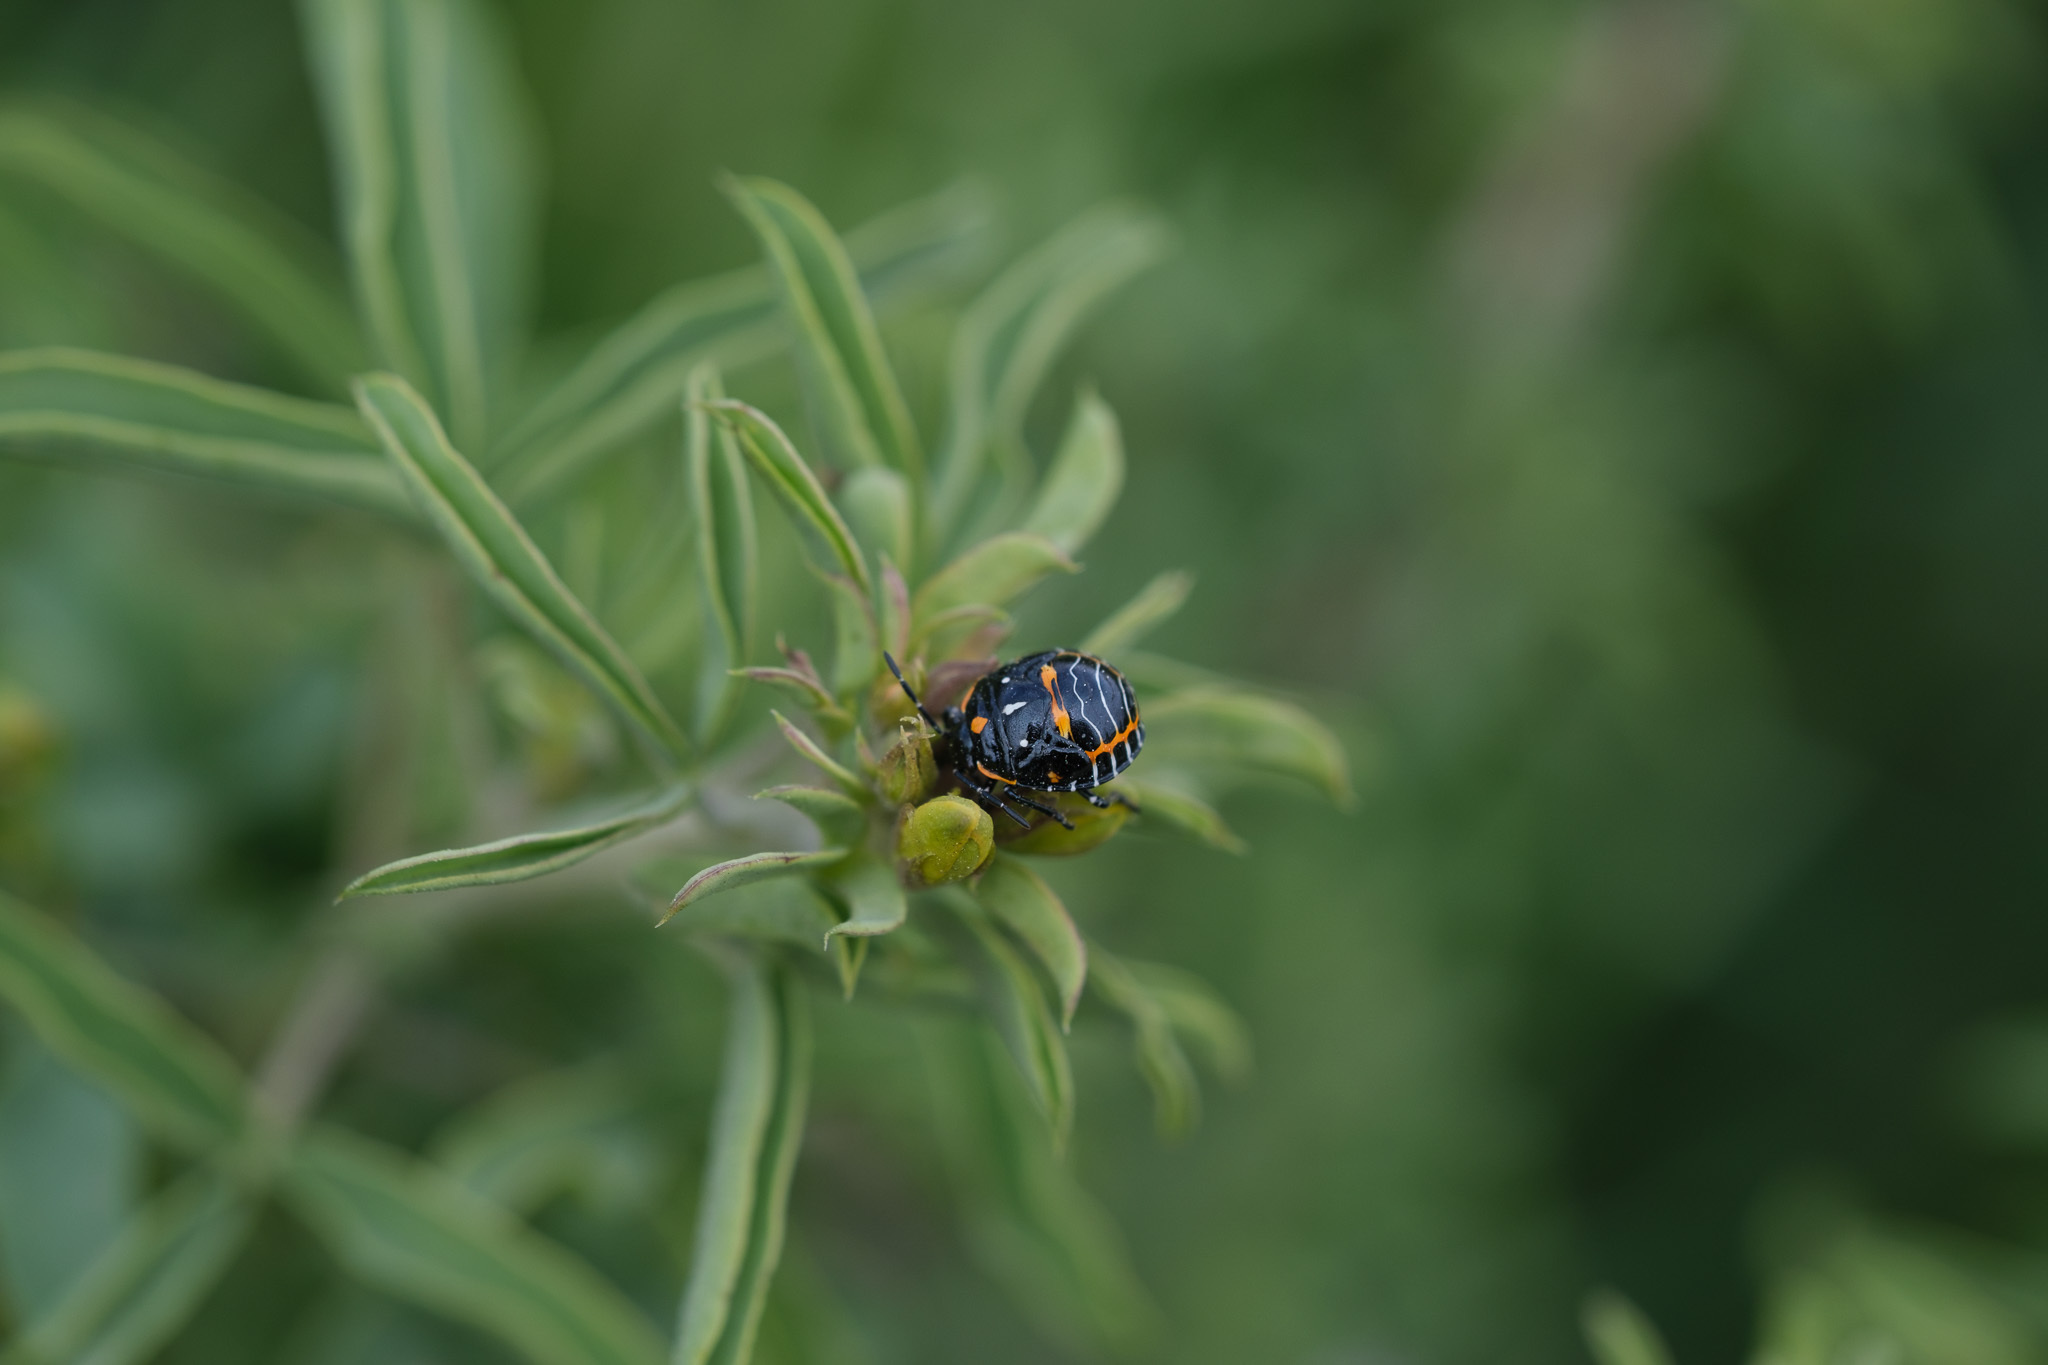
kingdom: Animalia
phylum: Arthropoda
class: Insecta
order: Hemiptera
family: Pentatomidae
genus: Murgantia
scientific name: Murgantia histrionica
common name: Harlequin bug
